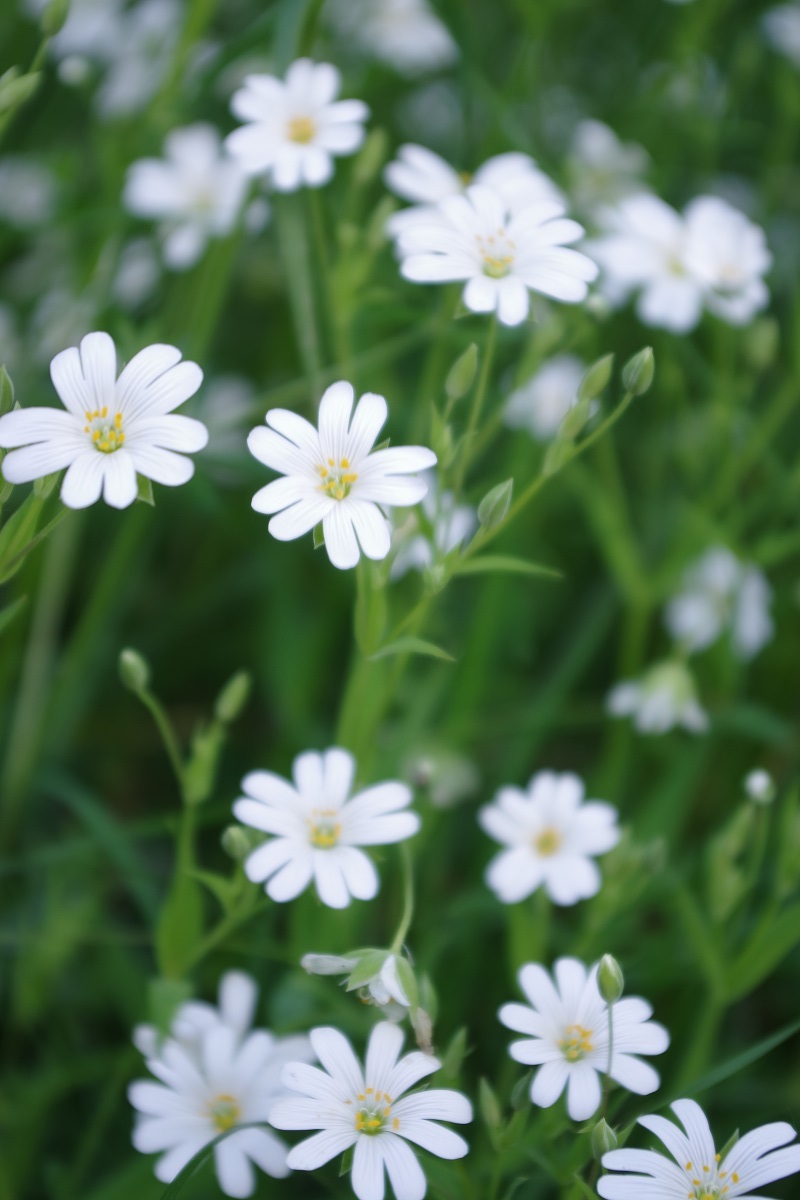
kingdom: Plantae
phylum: Tracheophyta
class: Magnoliopsida
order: Caryophyllales
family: Caryophyllaceae
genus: Rabelera
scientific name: Rabelera holostea
